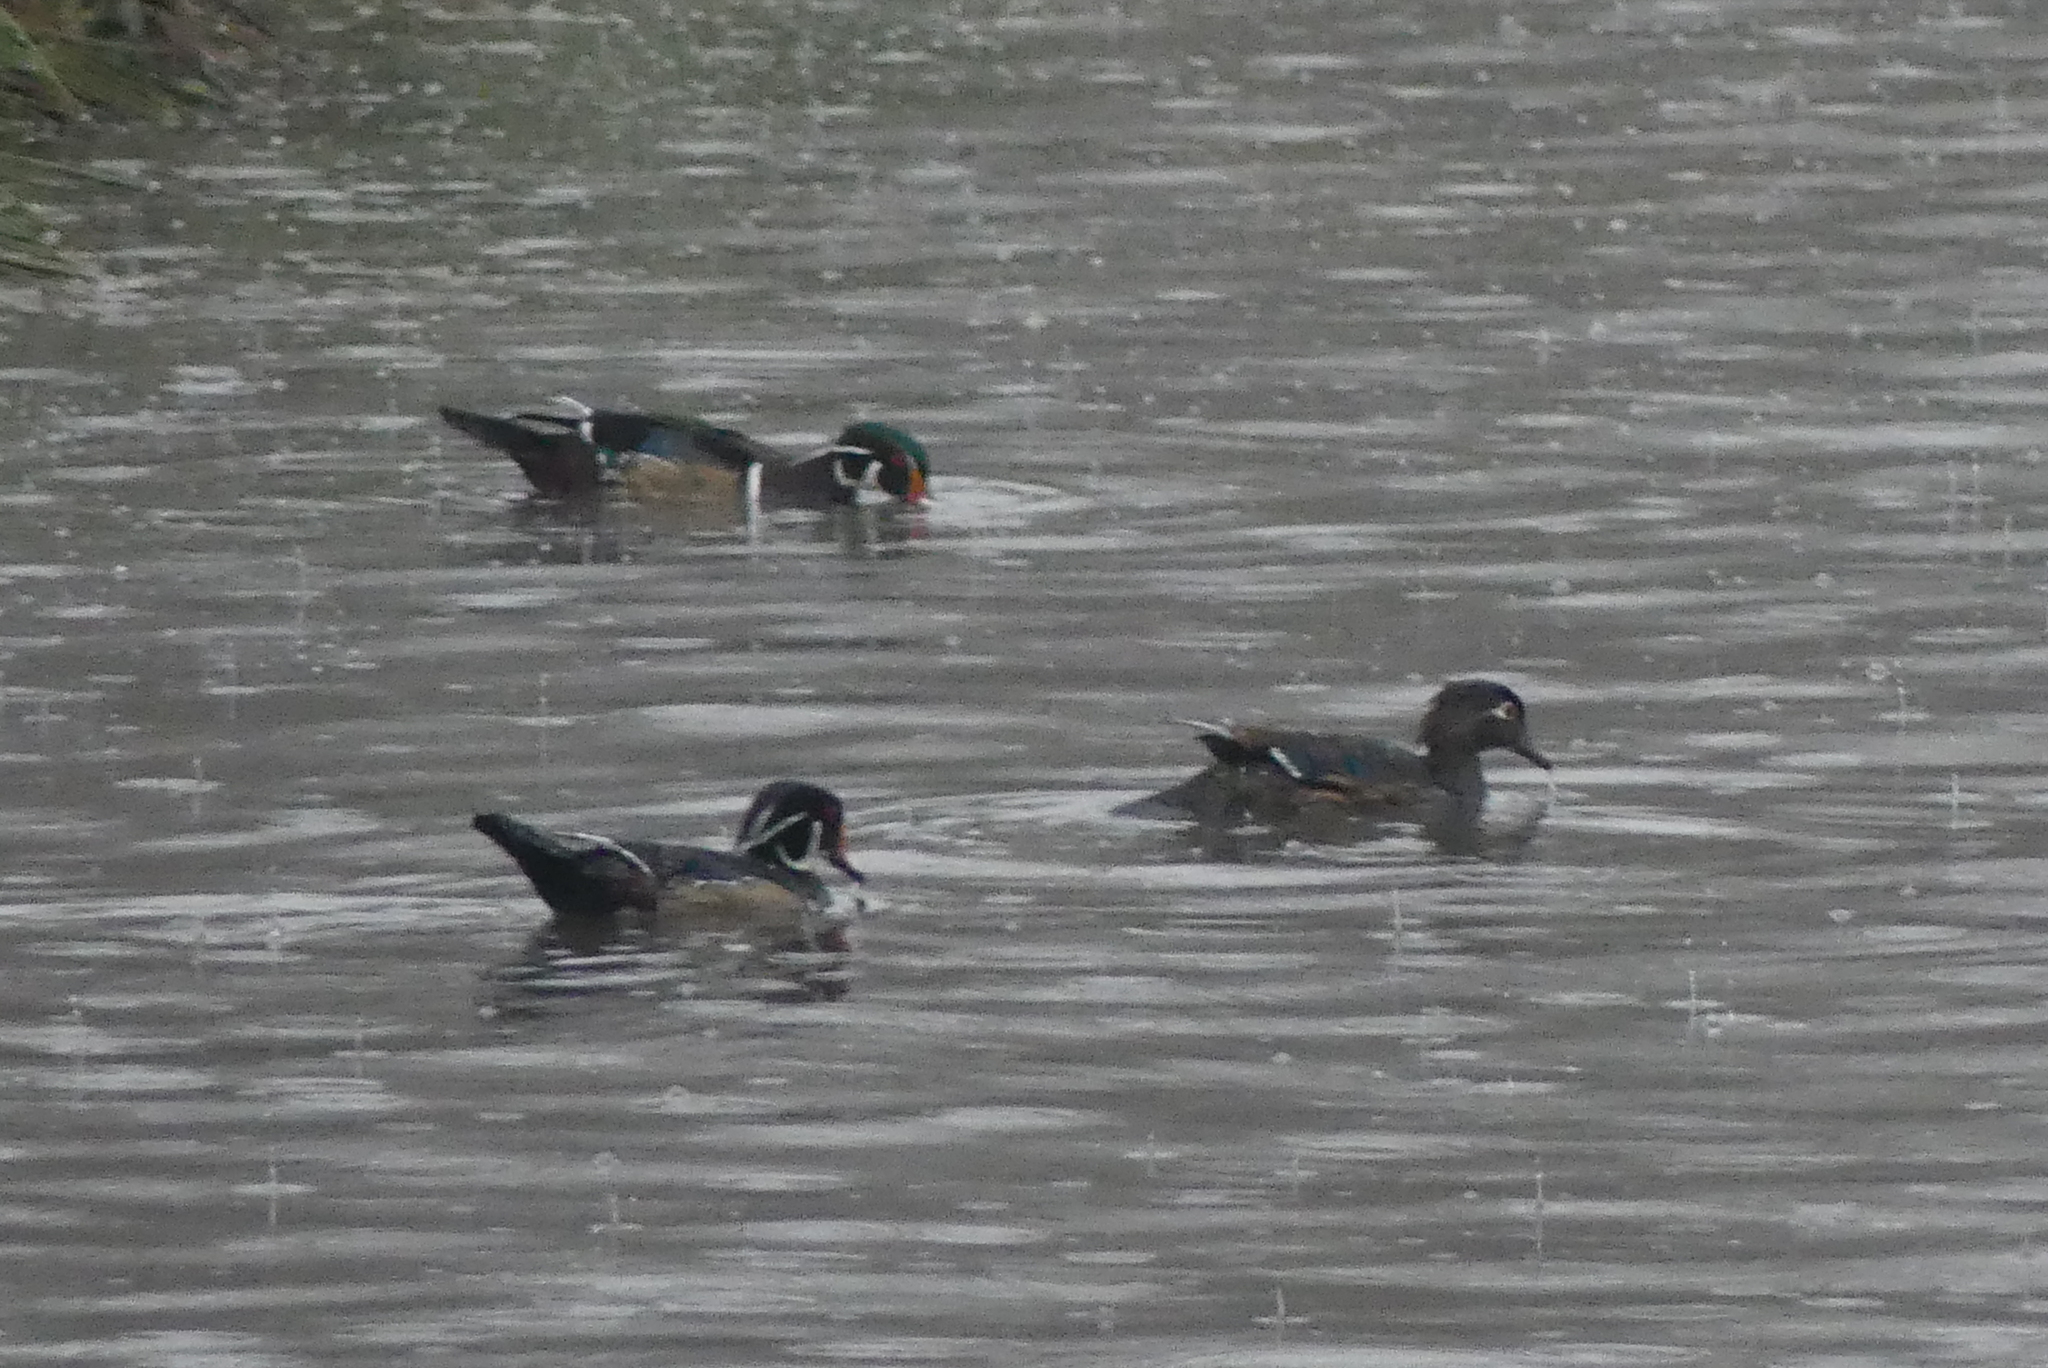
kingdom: Animalia
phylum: Chordata
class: Aves
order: Anseriformes
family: Anatidae
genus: Aix
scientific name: Aix sponsa
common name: Wood duck
